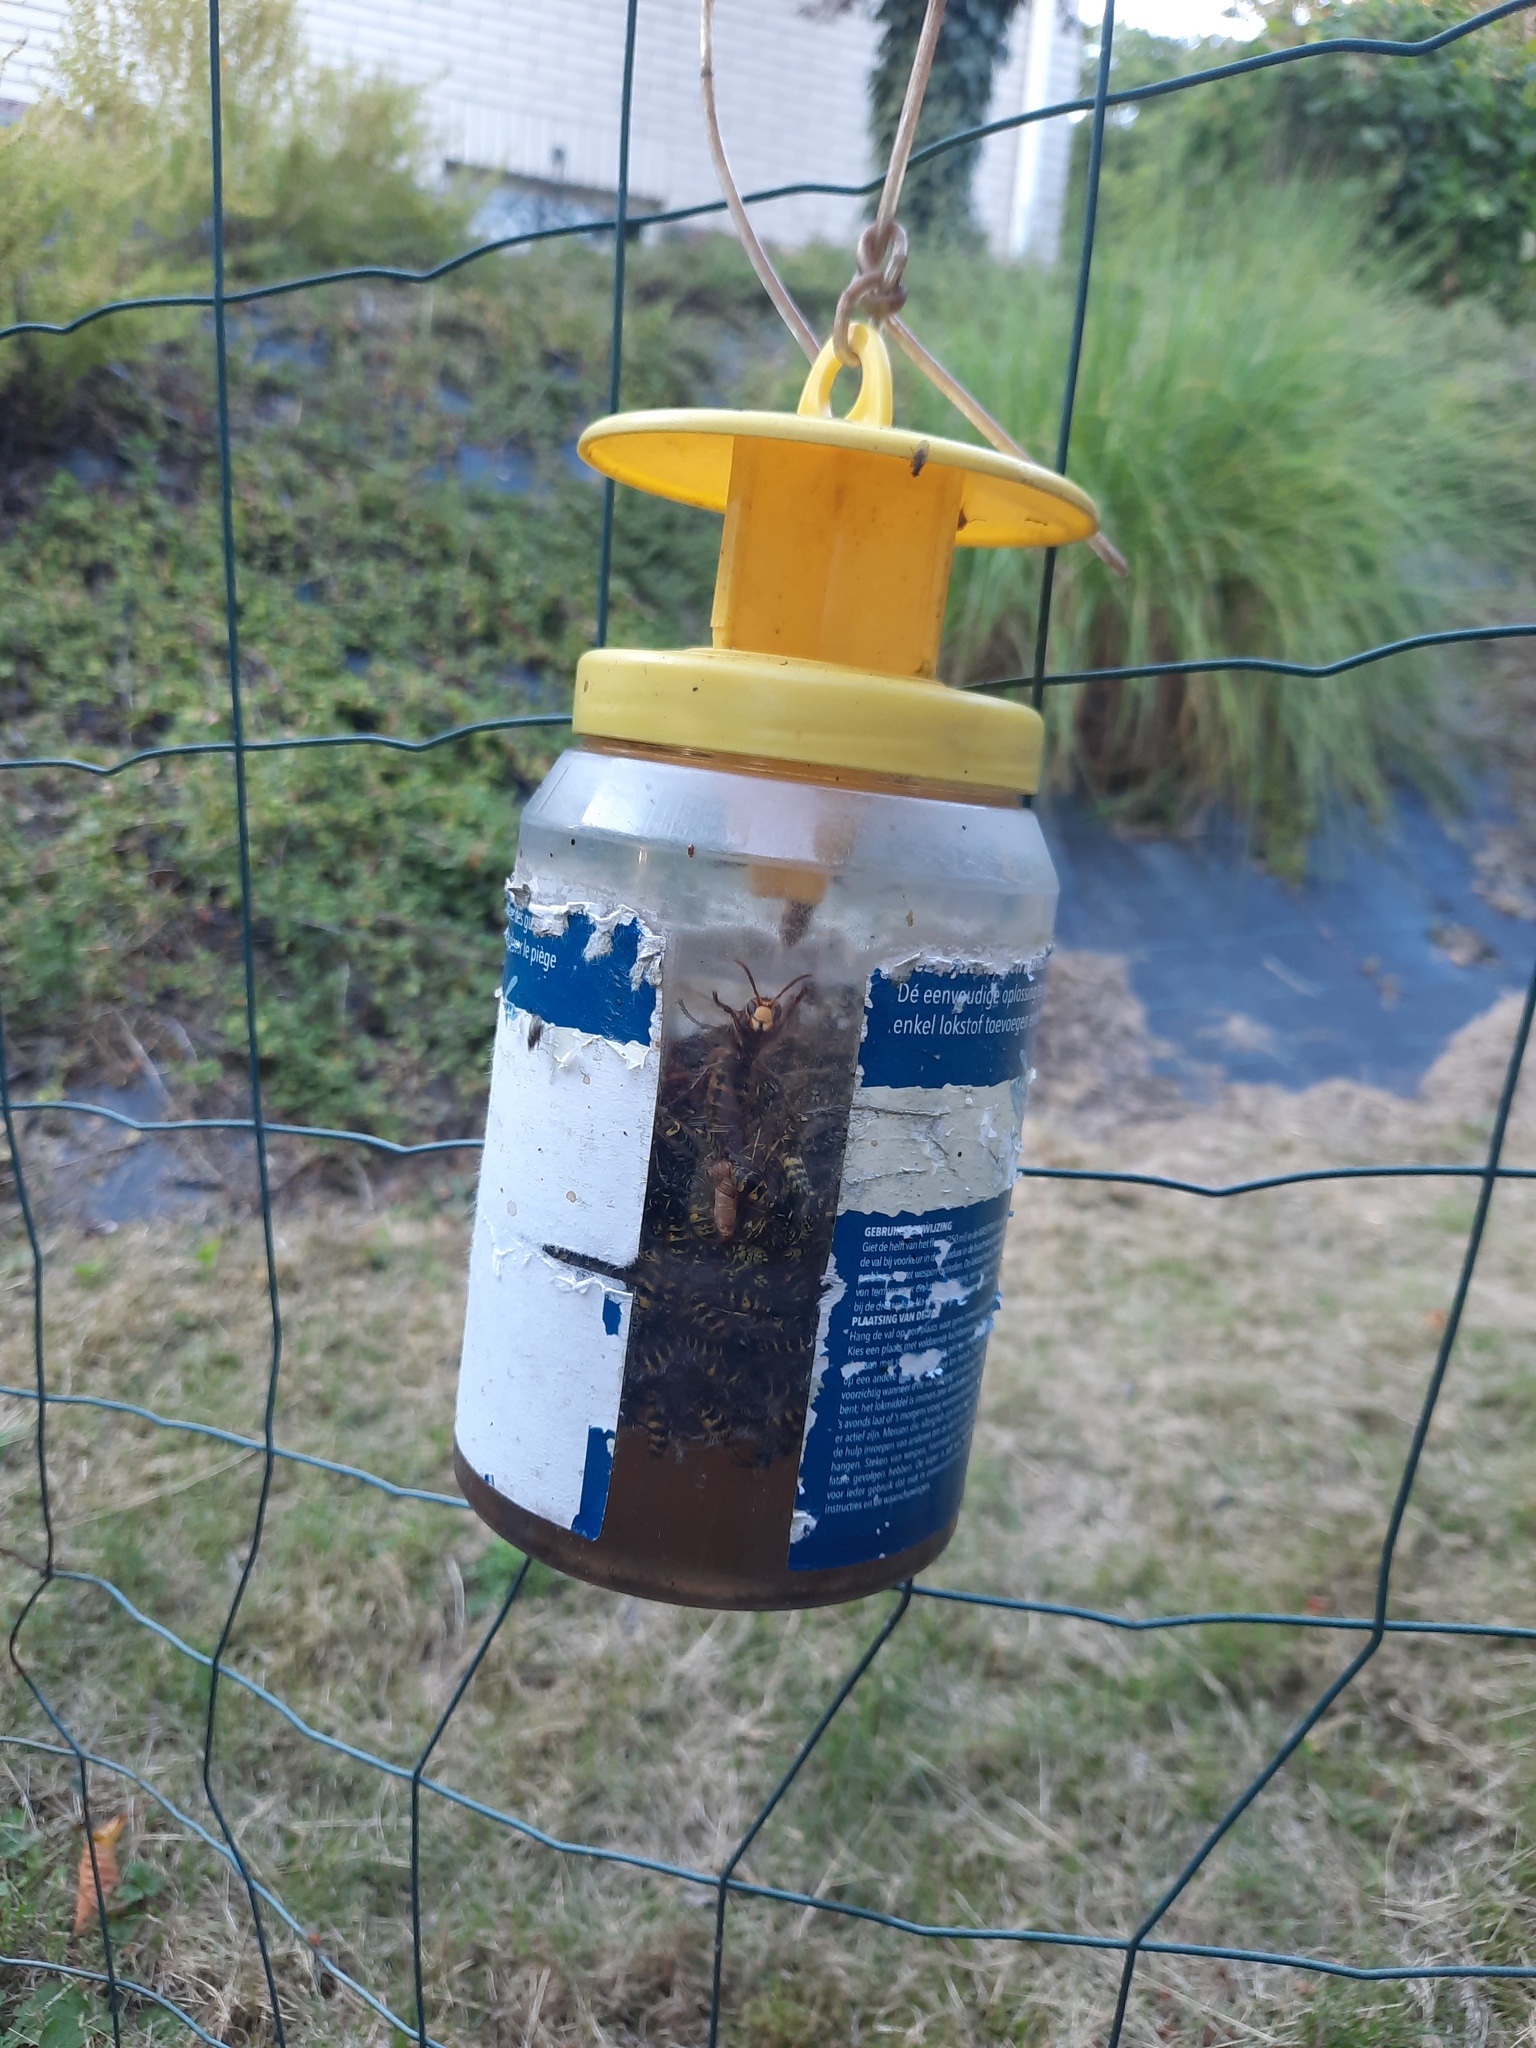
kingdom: Animalia
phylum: Arthropoda
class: Insecta
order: Hymenoptera
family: Vespidae
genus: Vespa
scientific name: Vespa crabro
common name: Hornet
